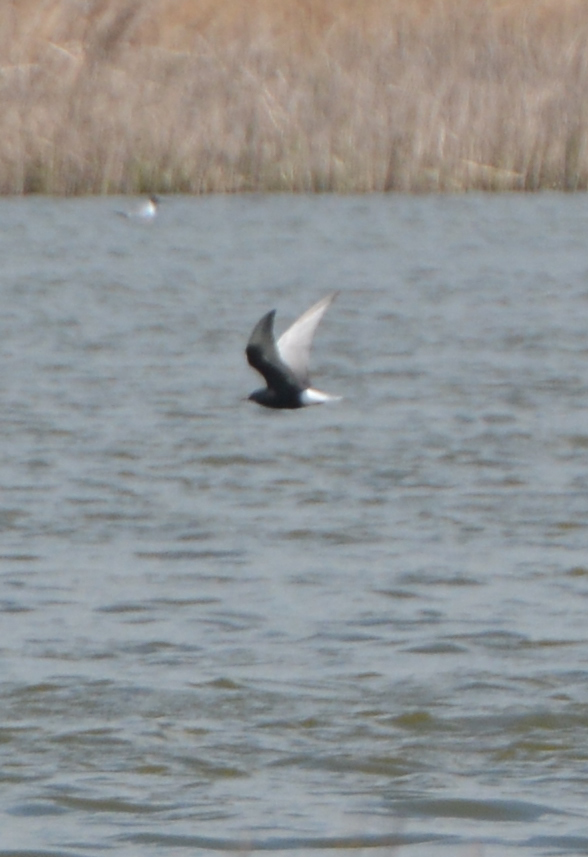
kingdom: Animalia
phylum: Chordata
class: Aves
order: Charadriiformes
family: Laridae
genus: Chlidonias
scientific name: Chlidonias leucopterus
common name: White-winged tern
